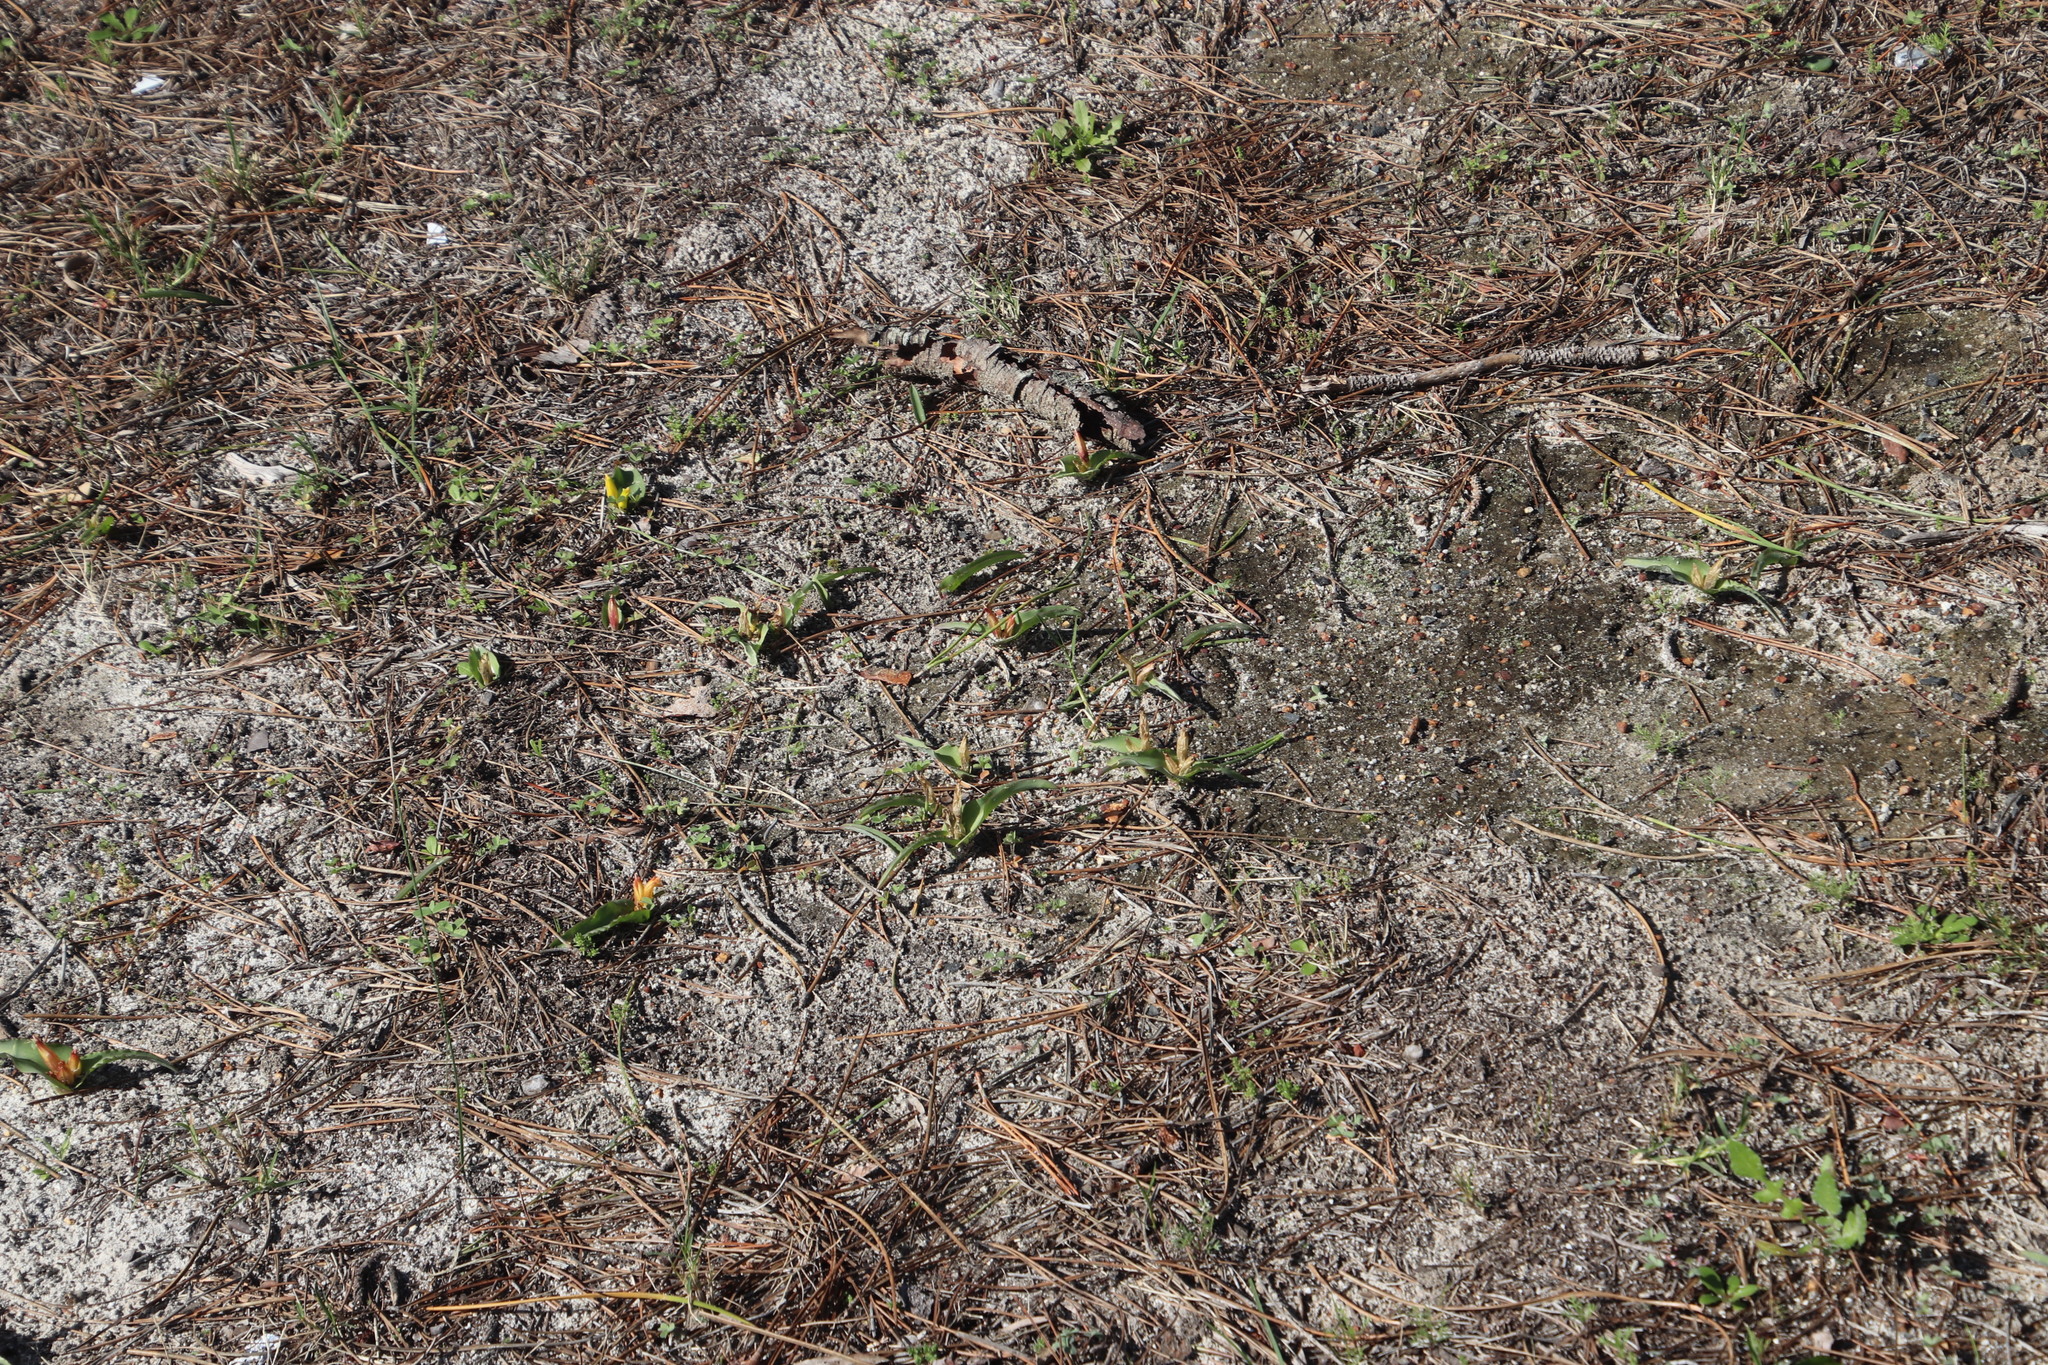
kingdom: Plantae
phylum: Tracheophyta
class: Liliopsida
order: Asparagales
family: Asparagaceae
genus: Lachenalia
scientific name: Lachenalia reflexa
